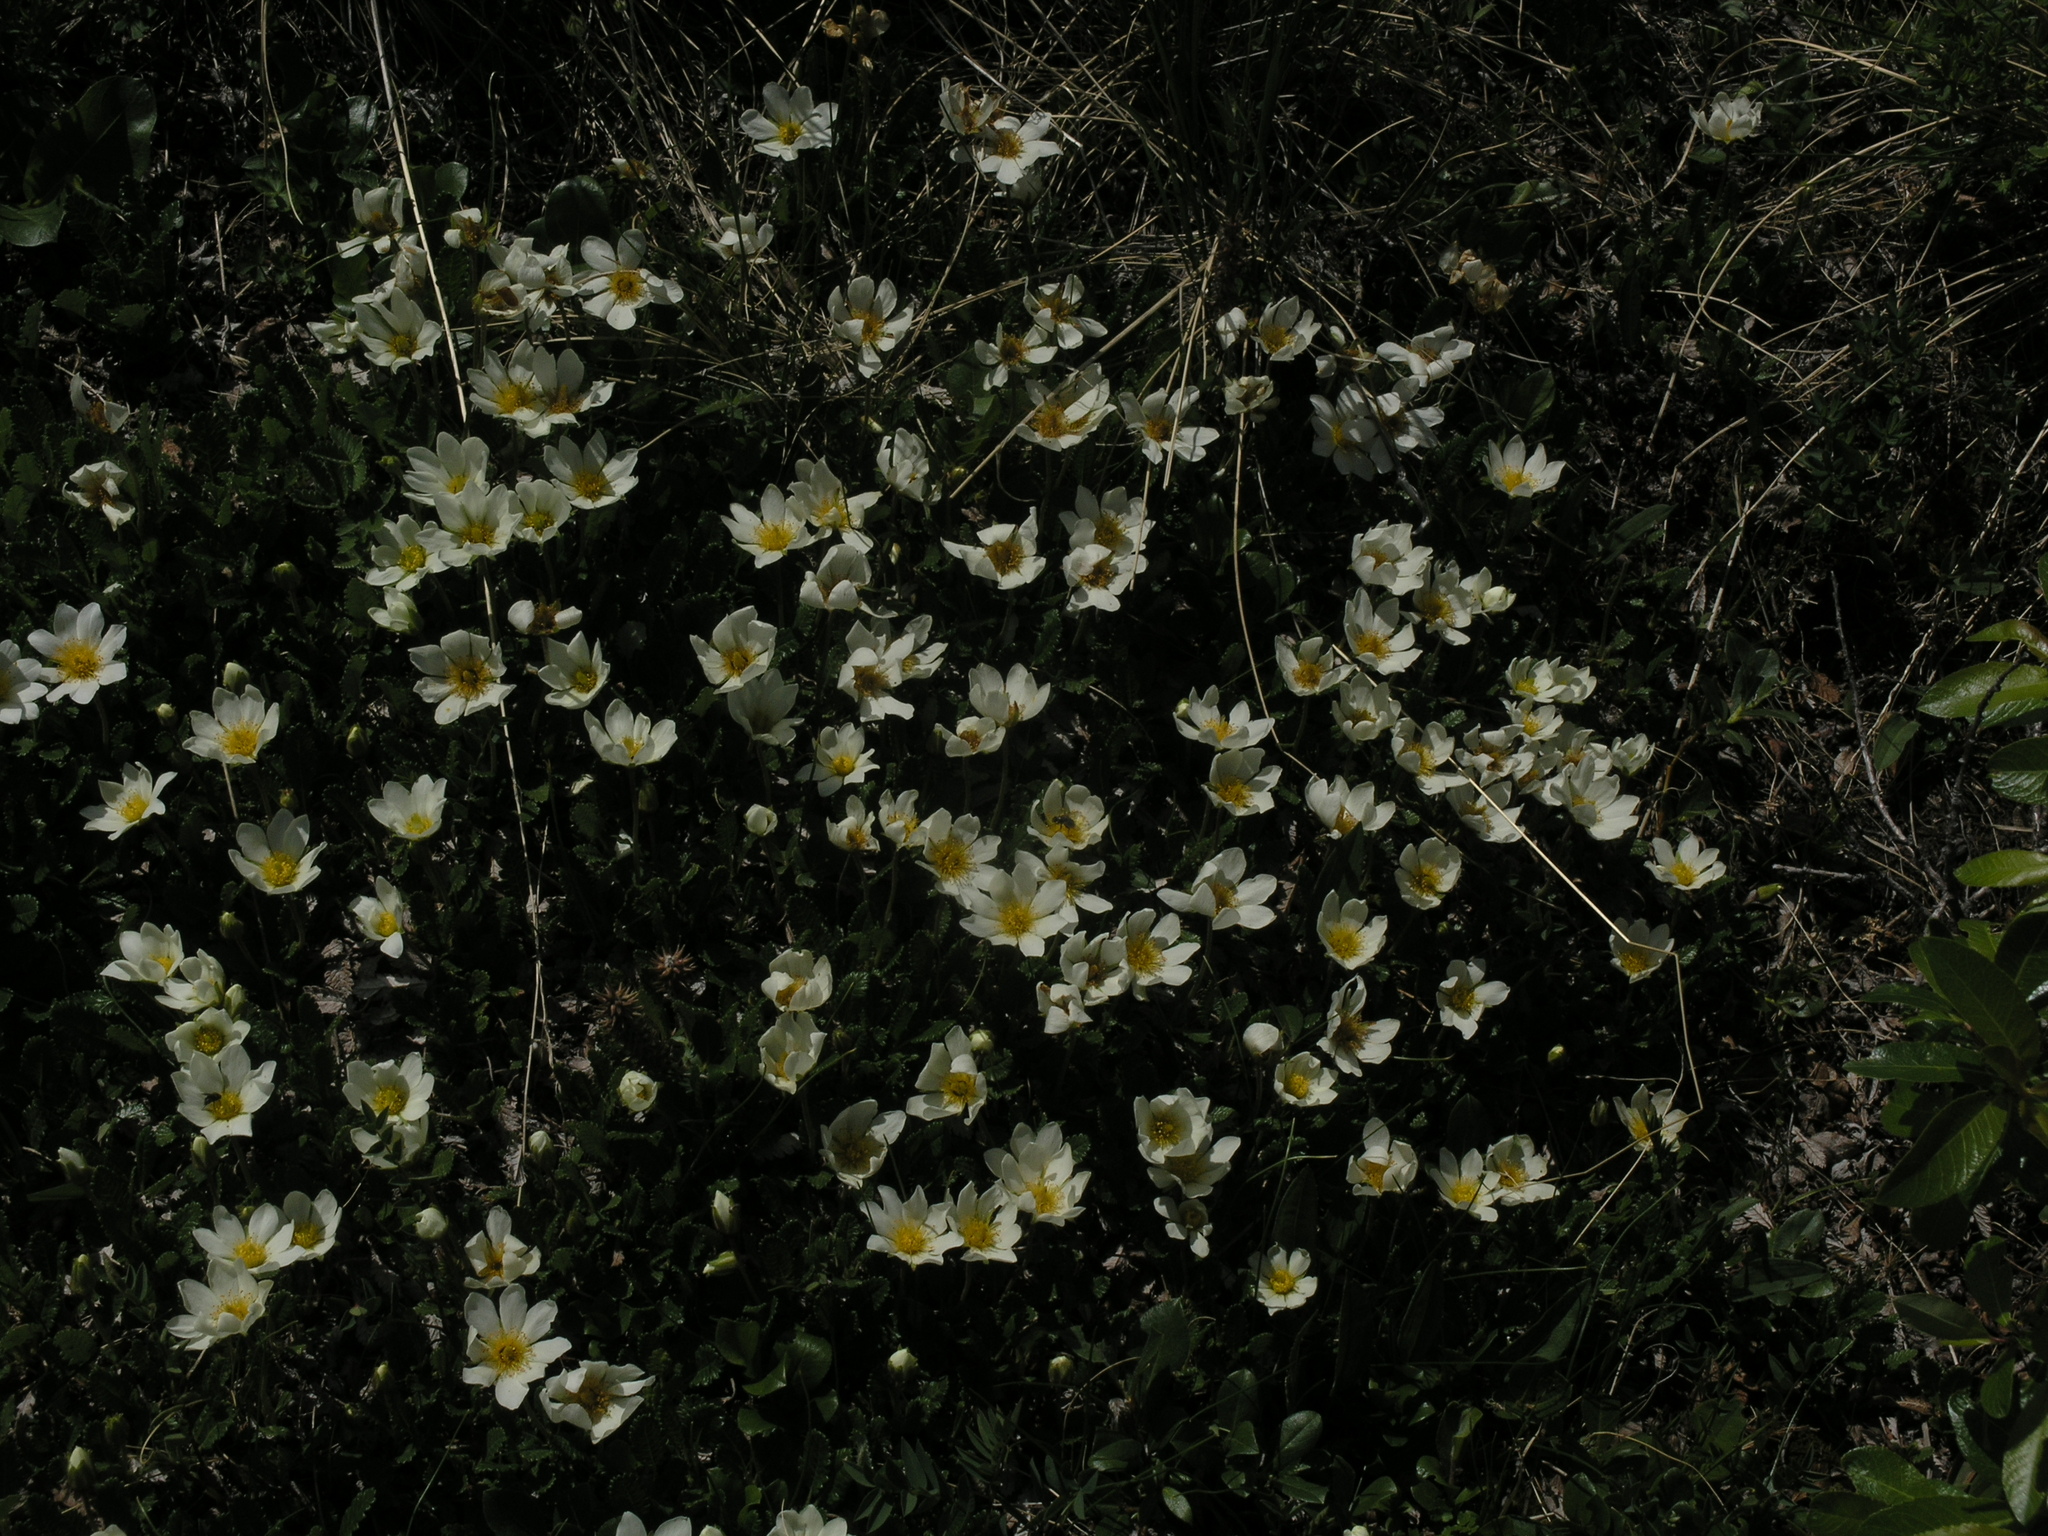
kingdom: Plantae
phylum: Tracheophyta
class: Magnoliopsida
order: Rosales
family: Rosaceae
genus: Dryas
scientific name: Dryas octopetala
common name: Eight-petal mountain-avens
